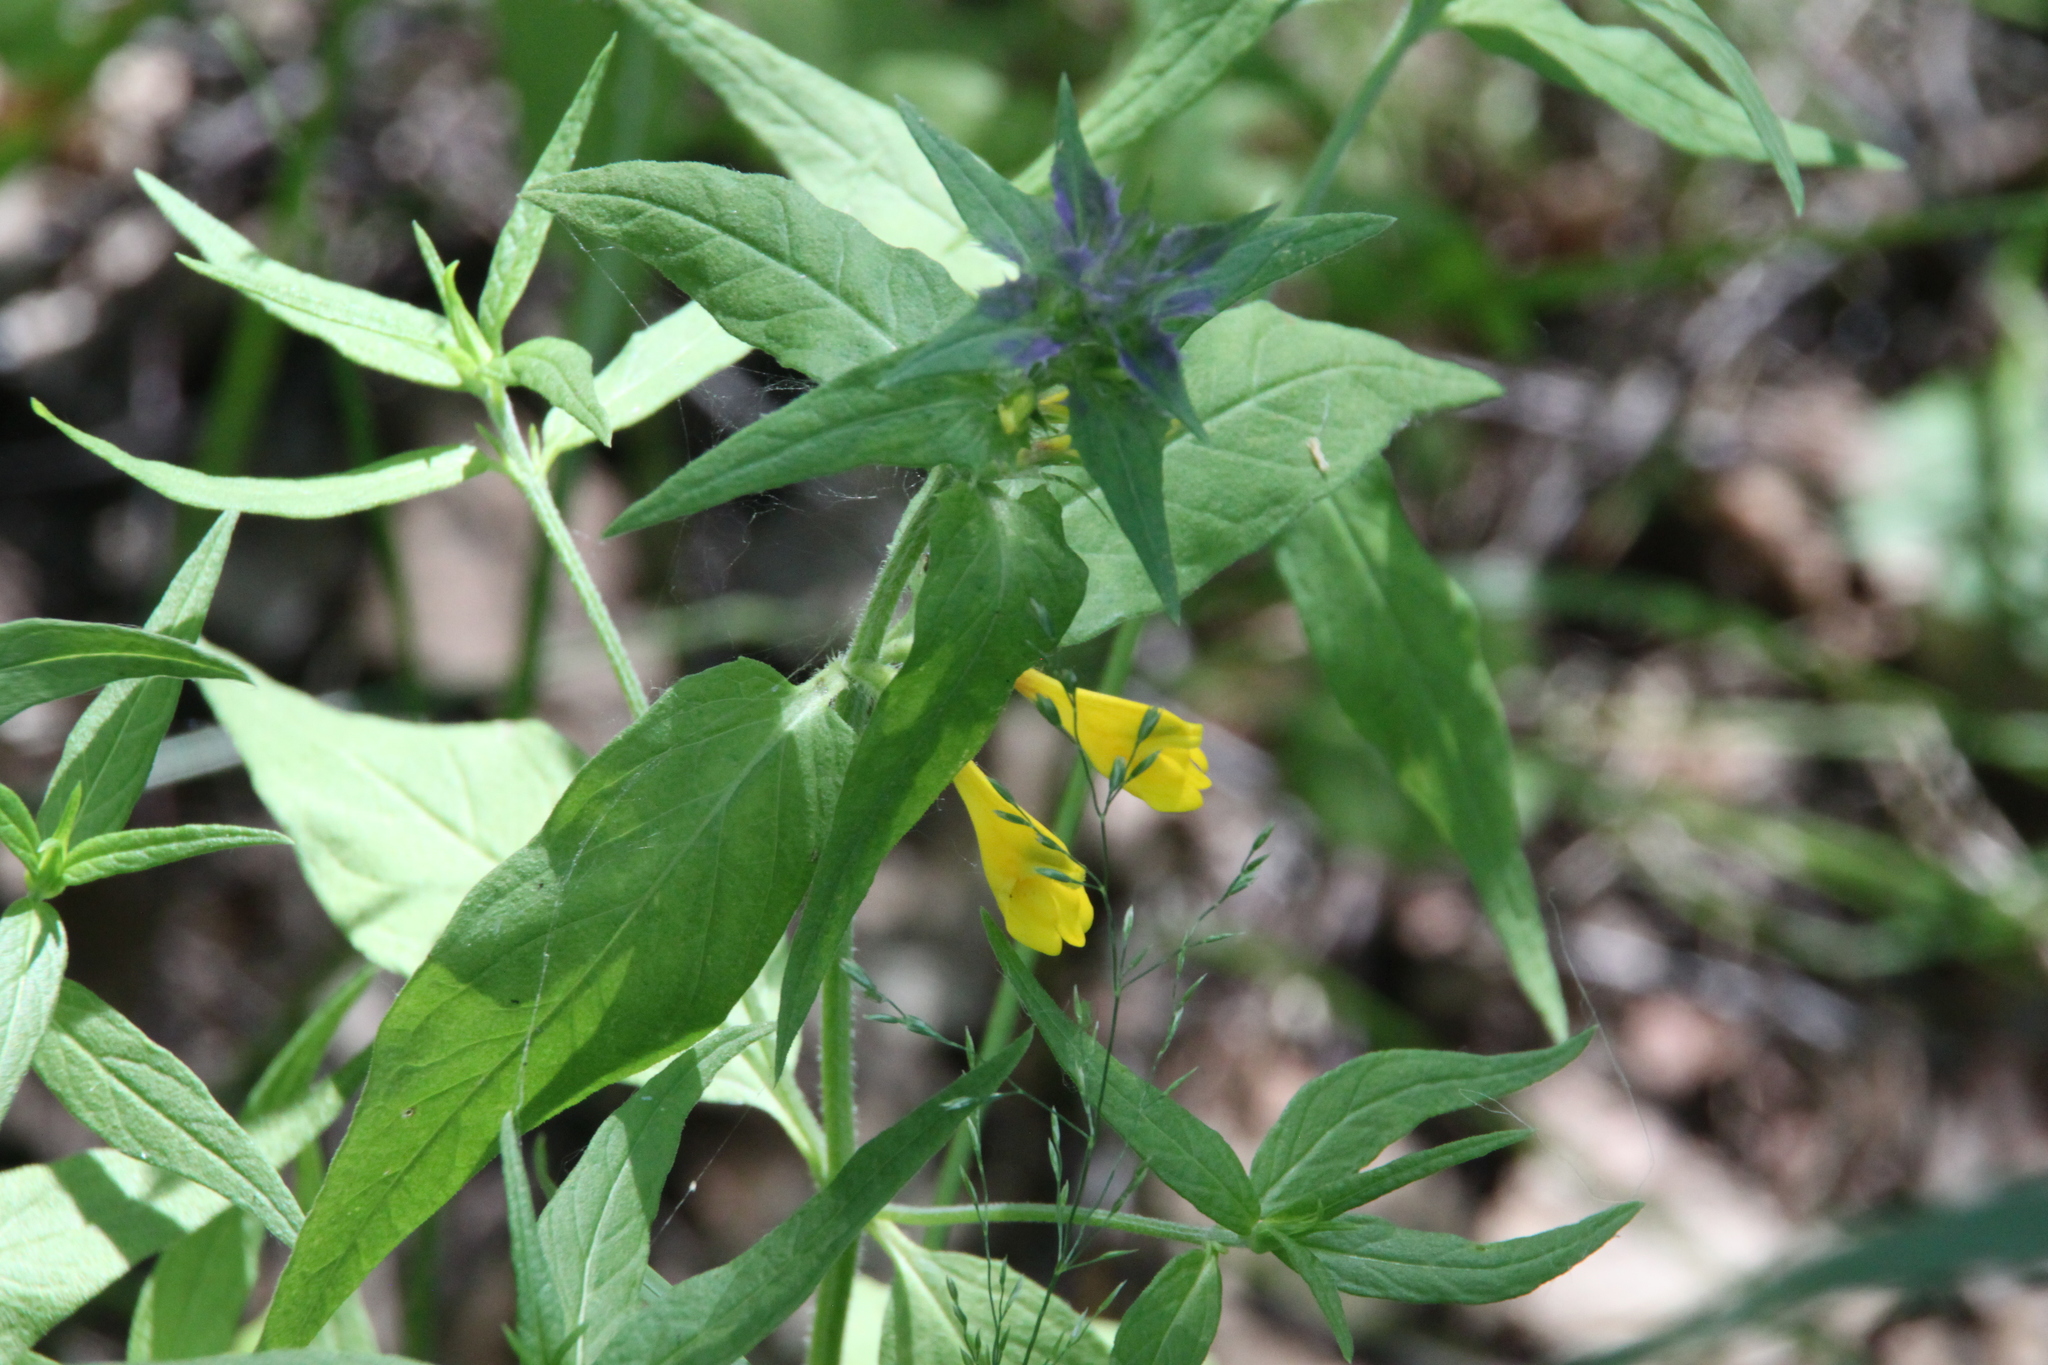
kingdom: Plantae
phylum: Tracheophyta
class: Magnoliopsida
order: Lamiales
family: Orobanchaceae
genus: Melampyrum
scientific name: Melampyrum nemorosum
